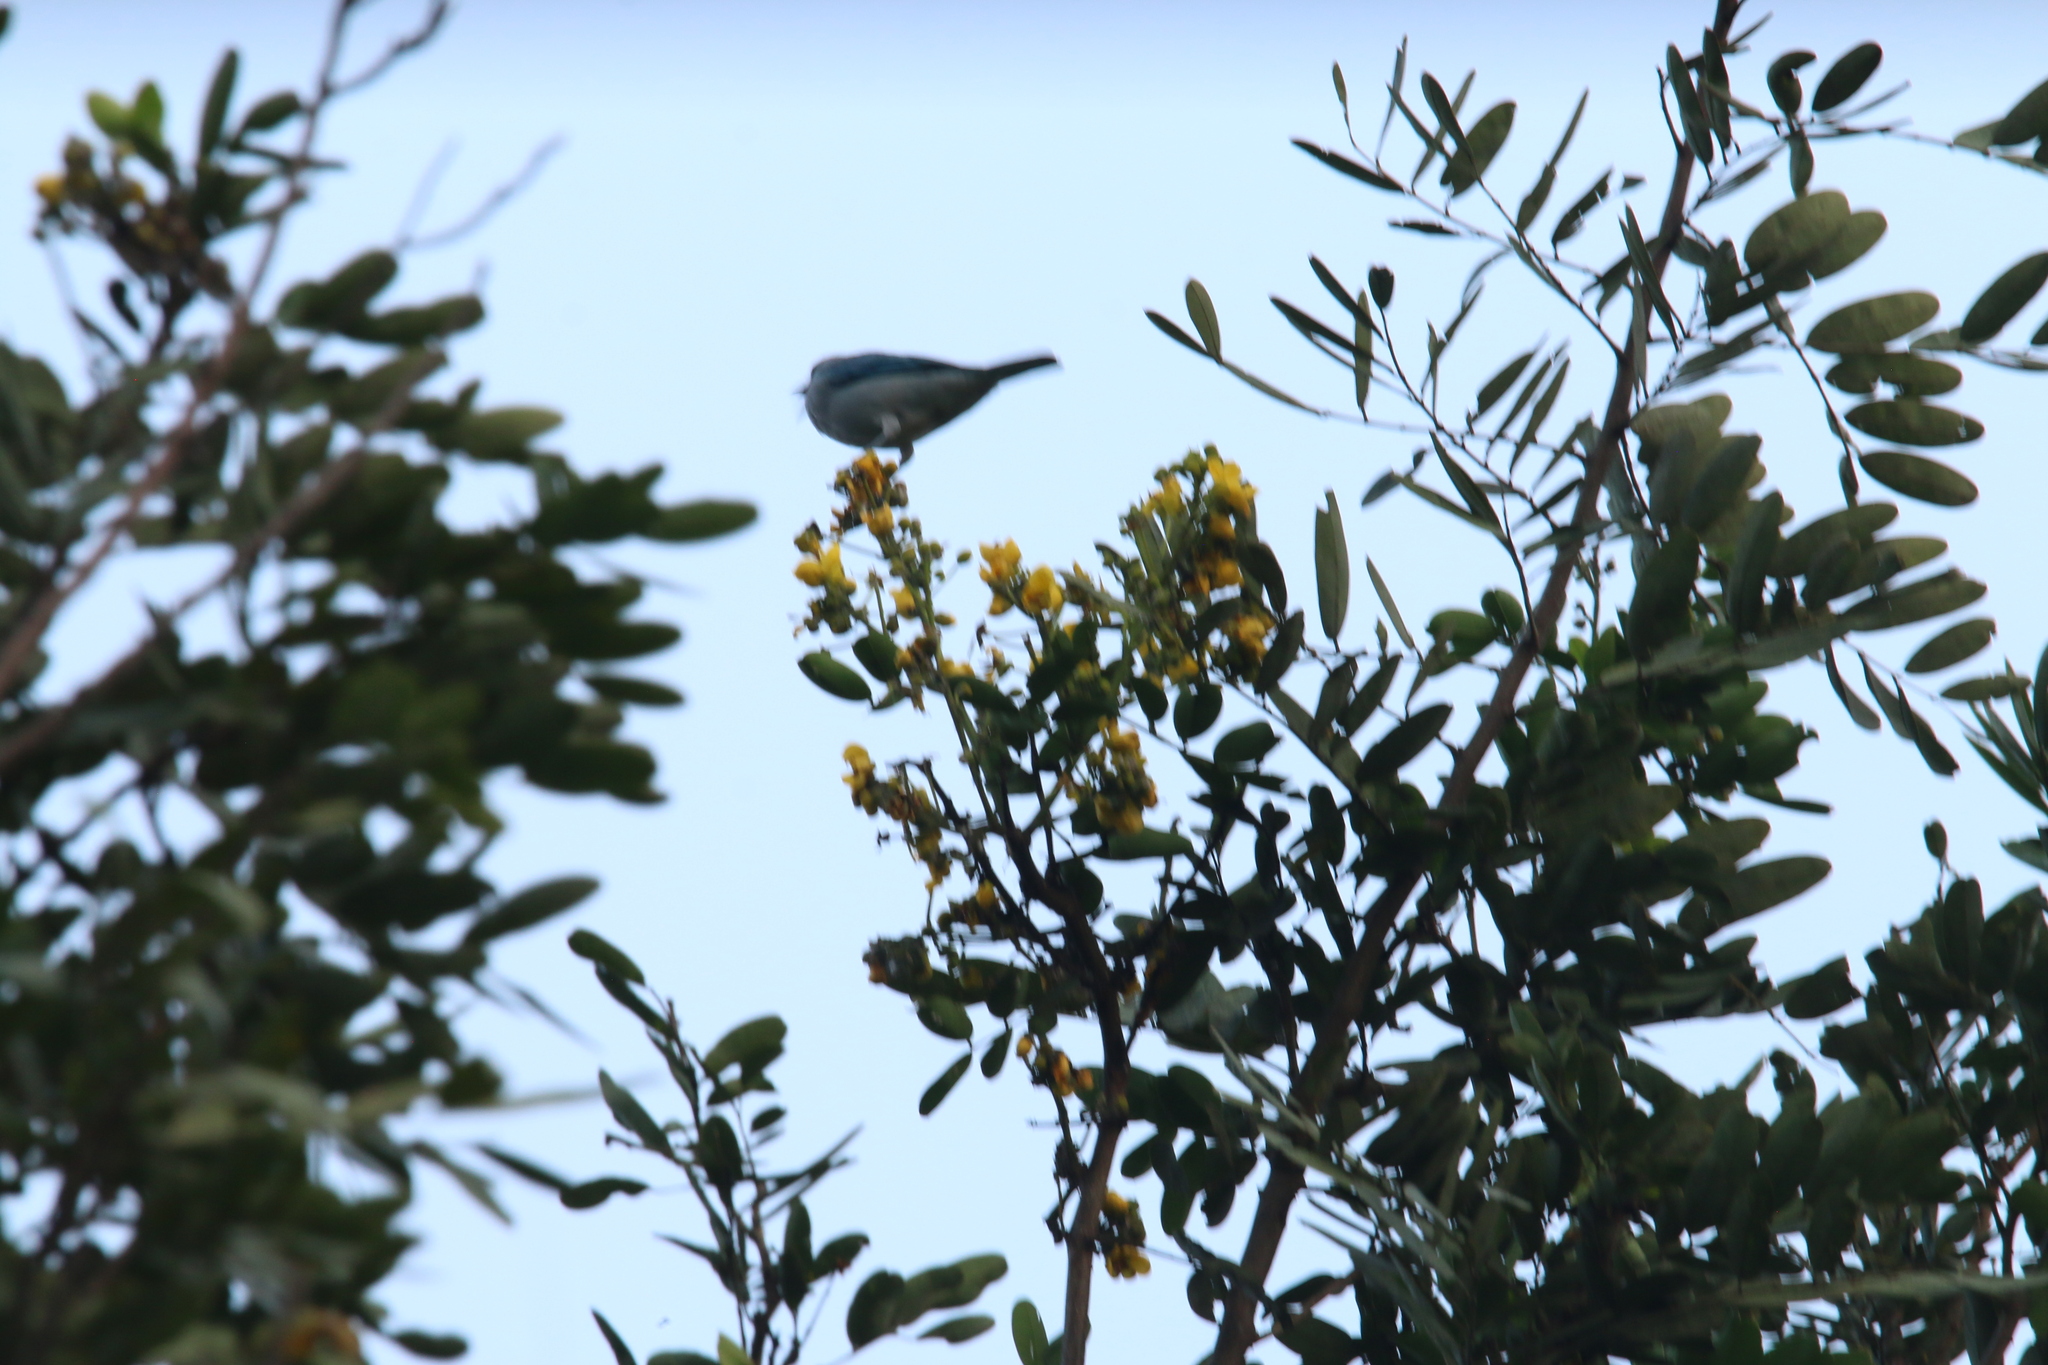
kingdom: Animalia
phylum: Chordata
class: Aves
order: Passeriformes
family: Thraupidae
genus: Thraupis
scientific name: Thraupis episcopus
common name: Blue-grey tanager
